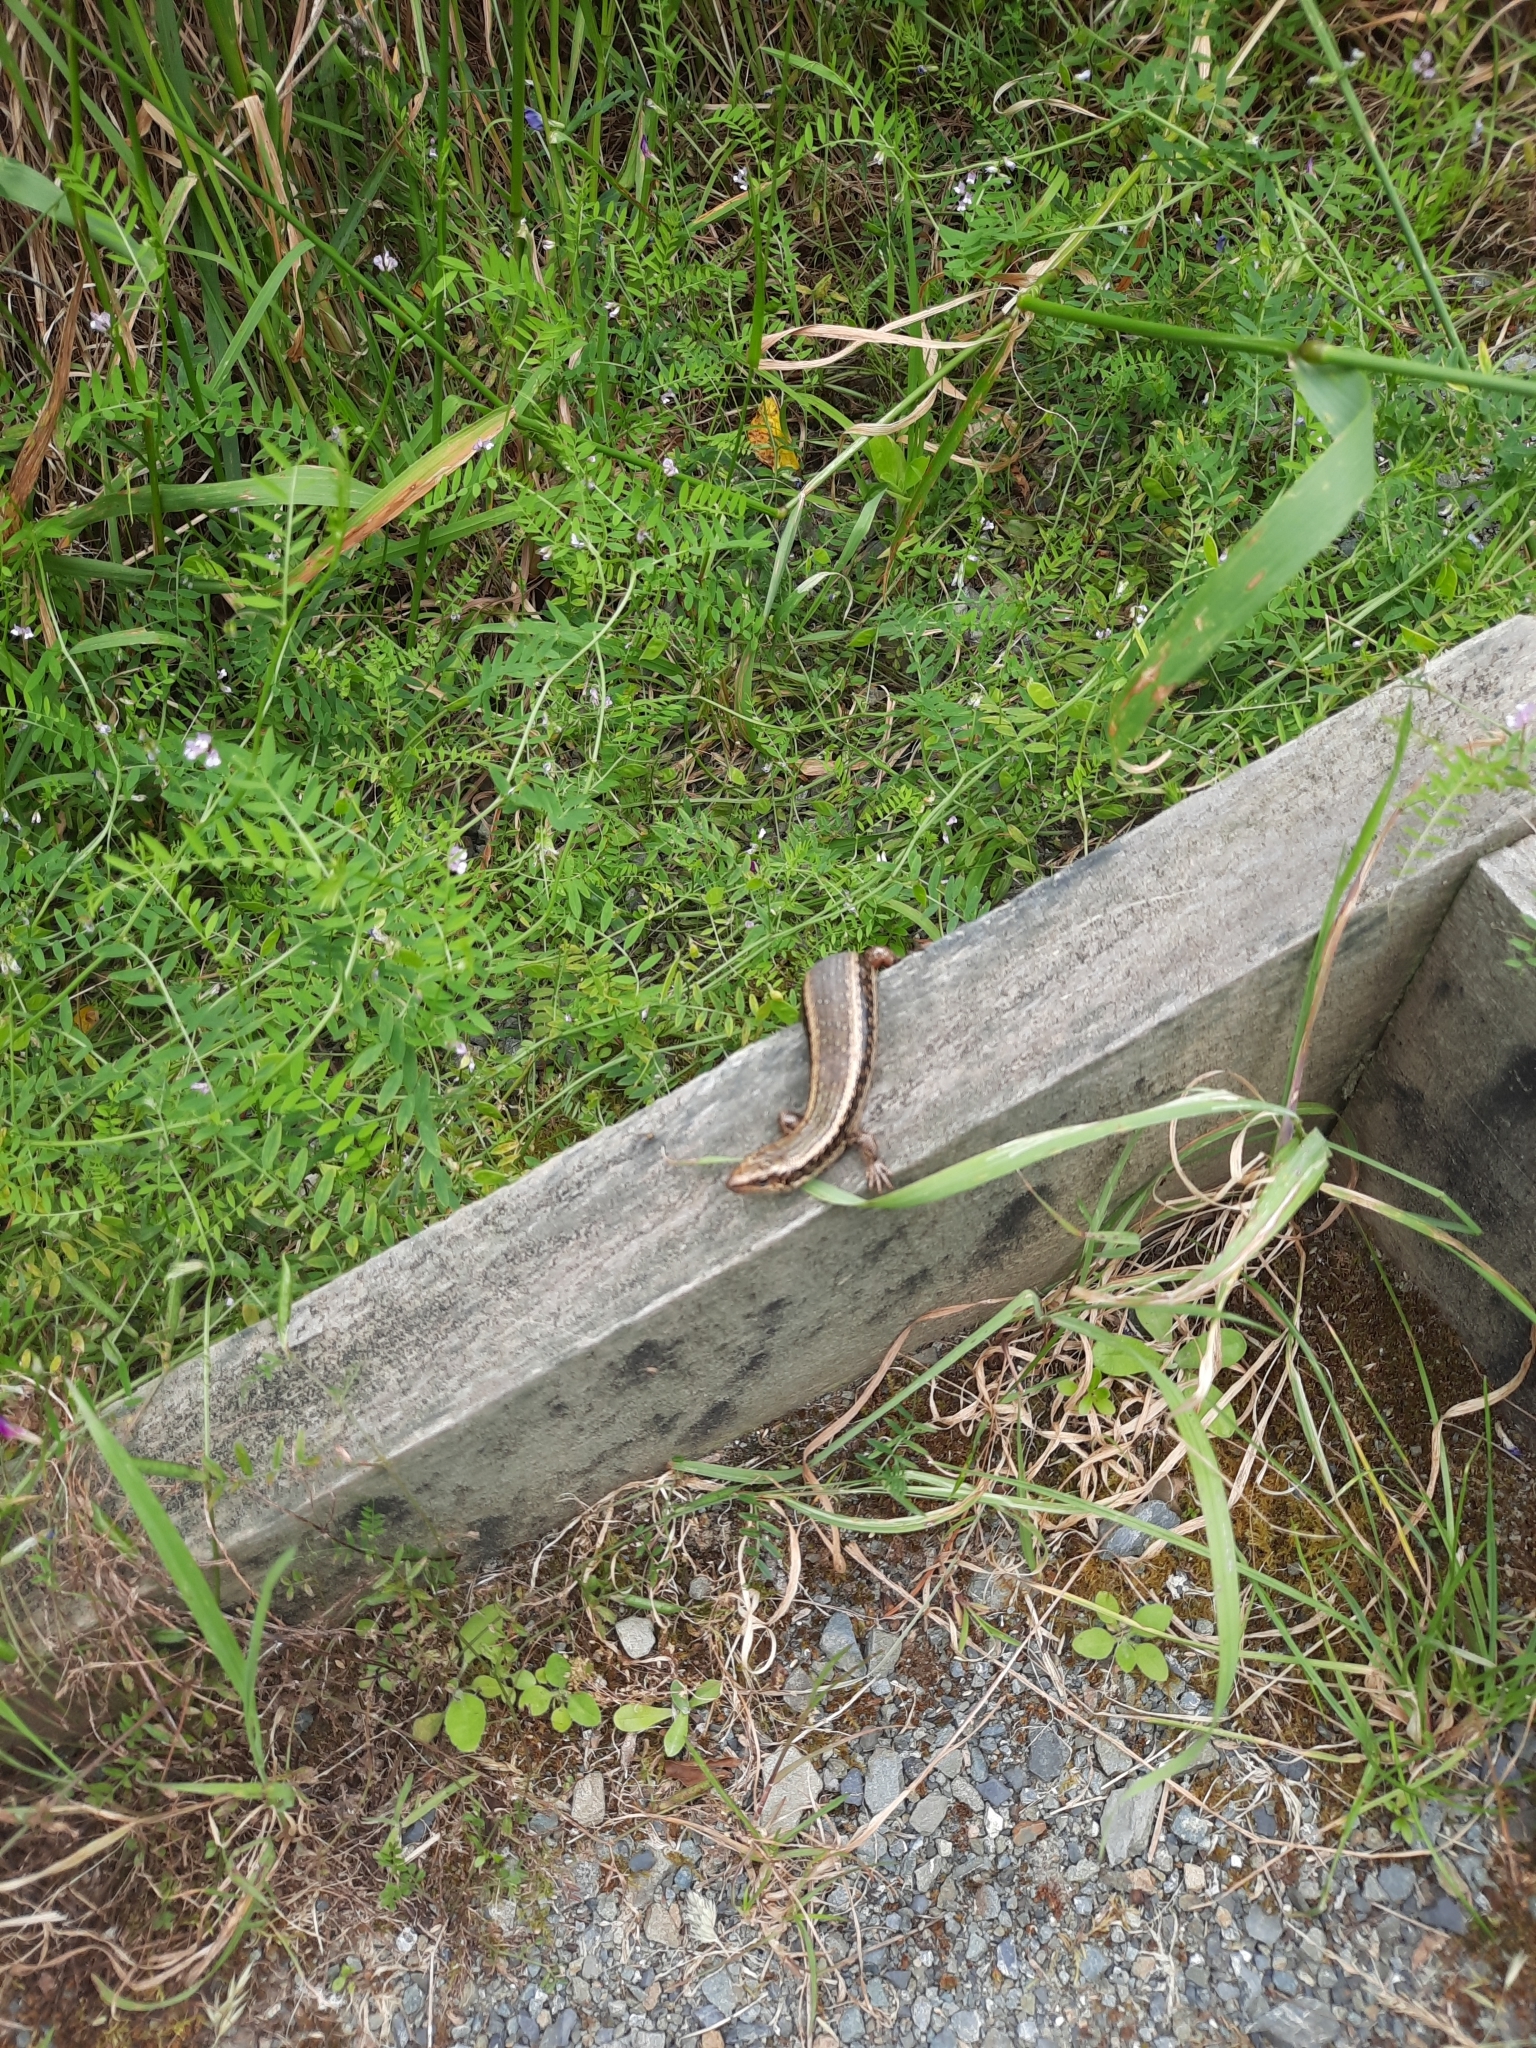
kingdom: Animalia
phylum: Chordata
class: Squamata
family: Scincidae
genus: Oligosoma
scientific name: Oligosoma kokowai
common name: Northern spotted skink
